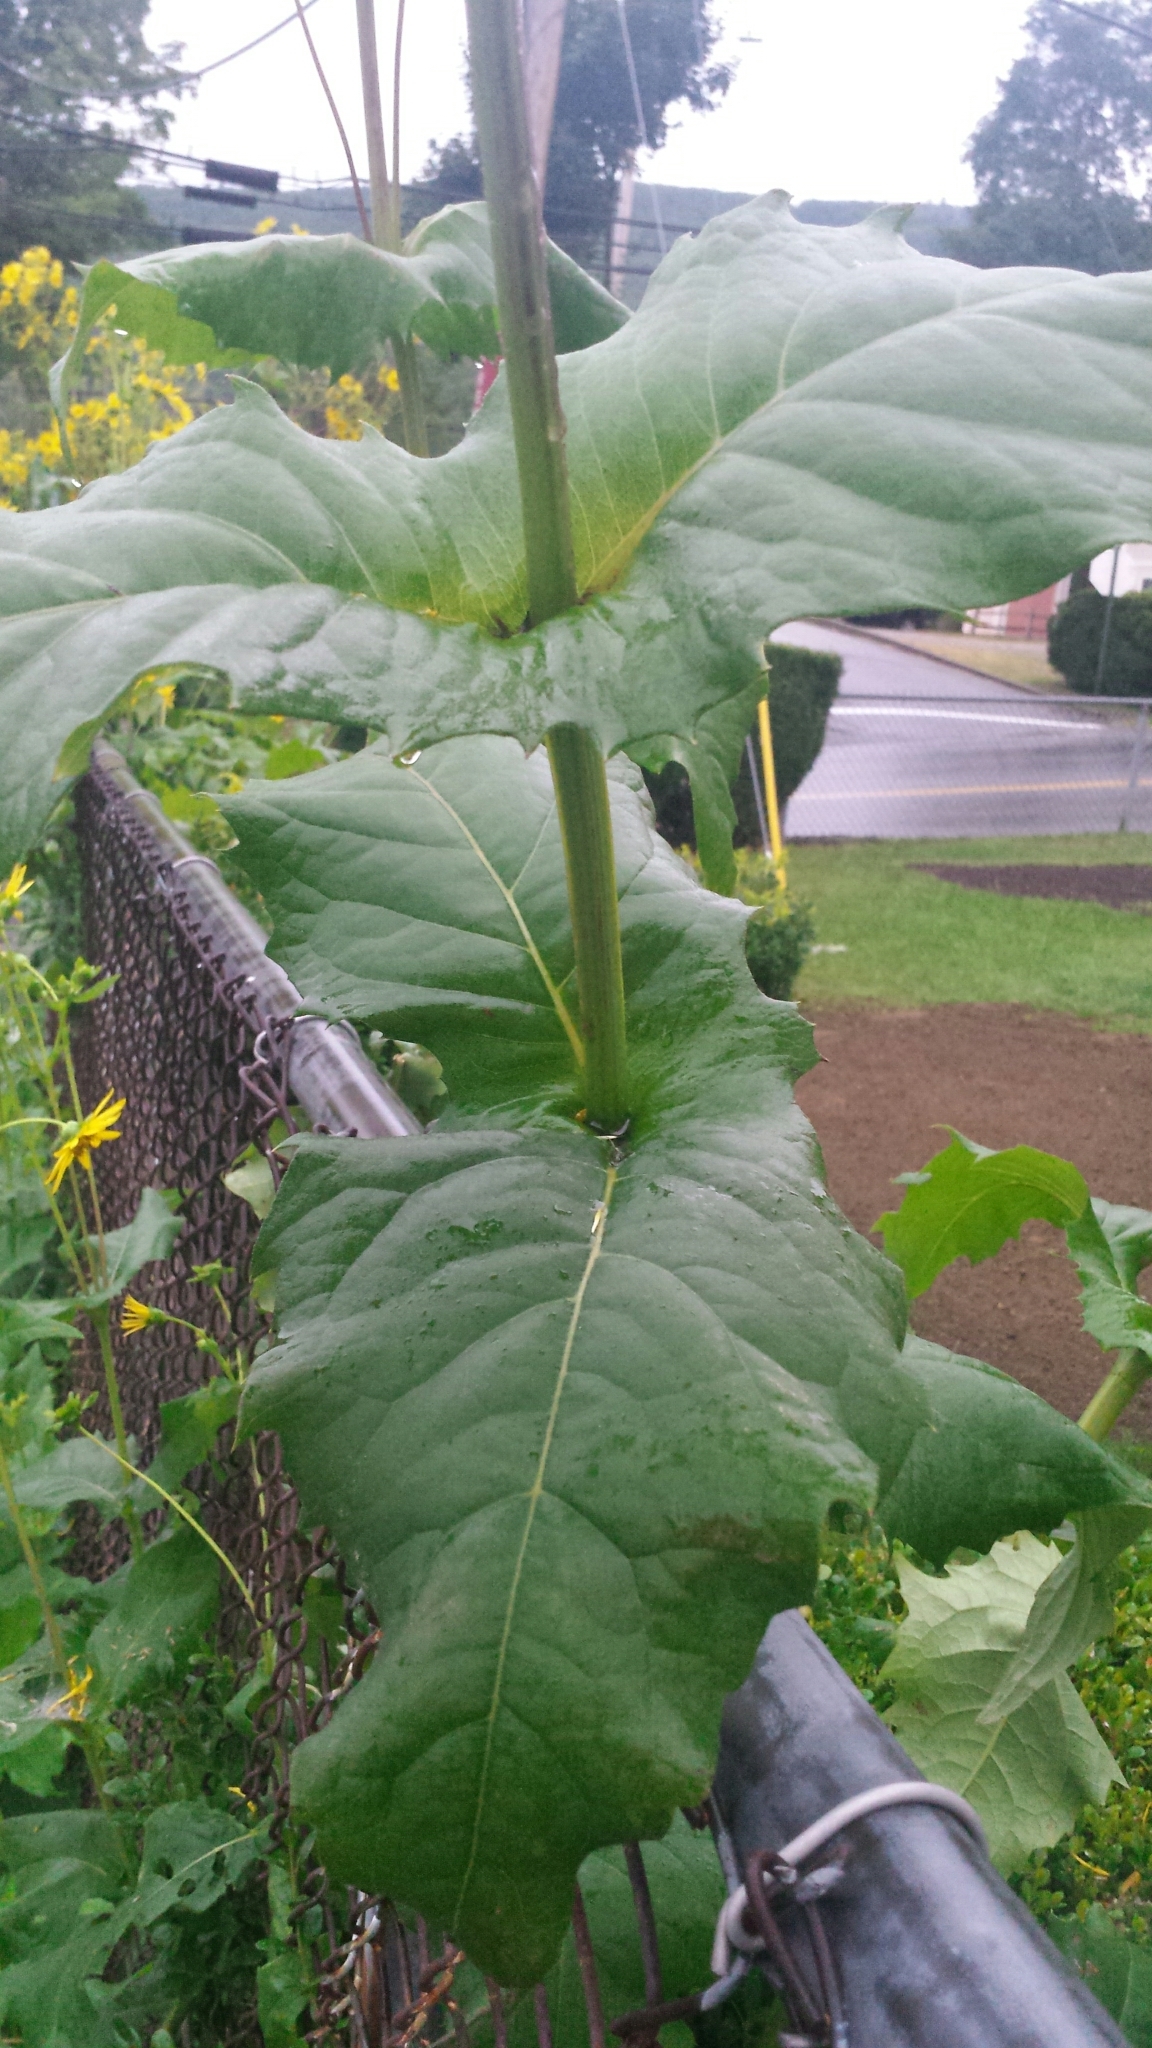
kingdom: Plantae
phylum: Tracheophyta
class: Magnoliopsida
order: Asterales
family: Asteraceae
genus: Silphium
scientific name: Silphium perfoliatum
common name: Cup-plant
